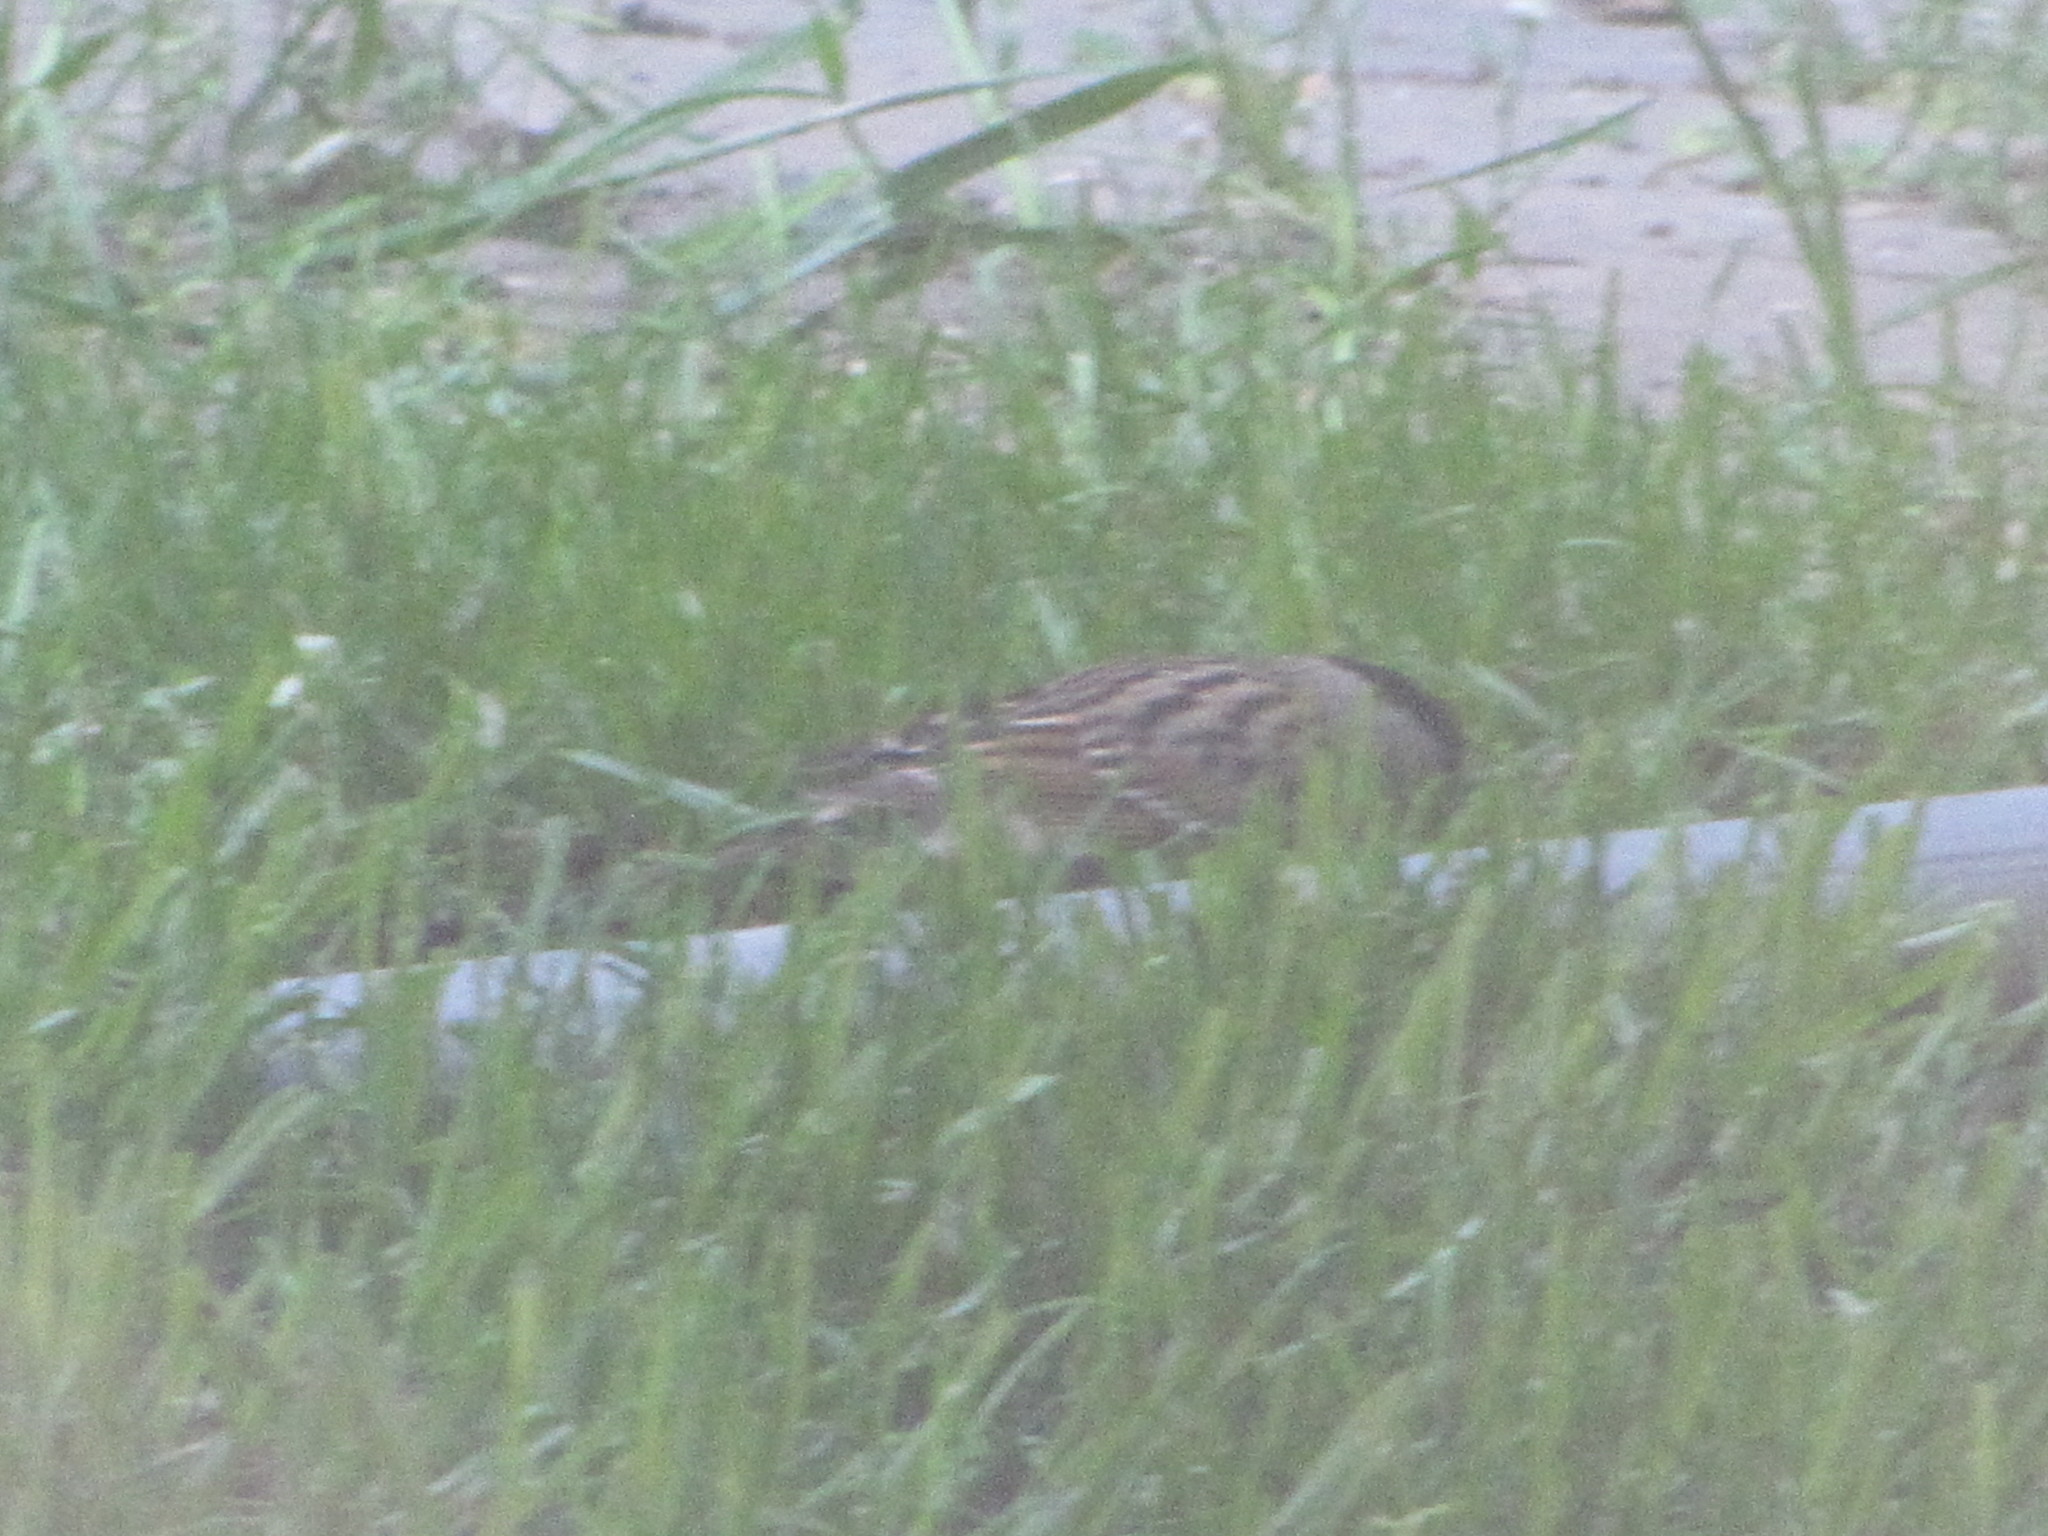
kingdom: Animalia
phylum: Chordata
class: Aves
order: Passeriformes
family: Passerellidae
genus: Zonotrichia
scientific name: Zonotrichia atricapilla
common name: Golden-crowned sparrow
